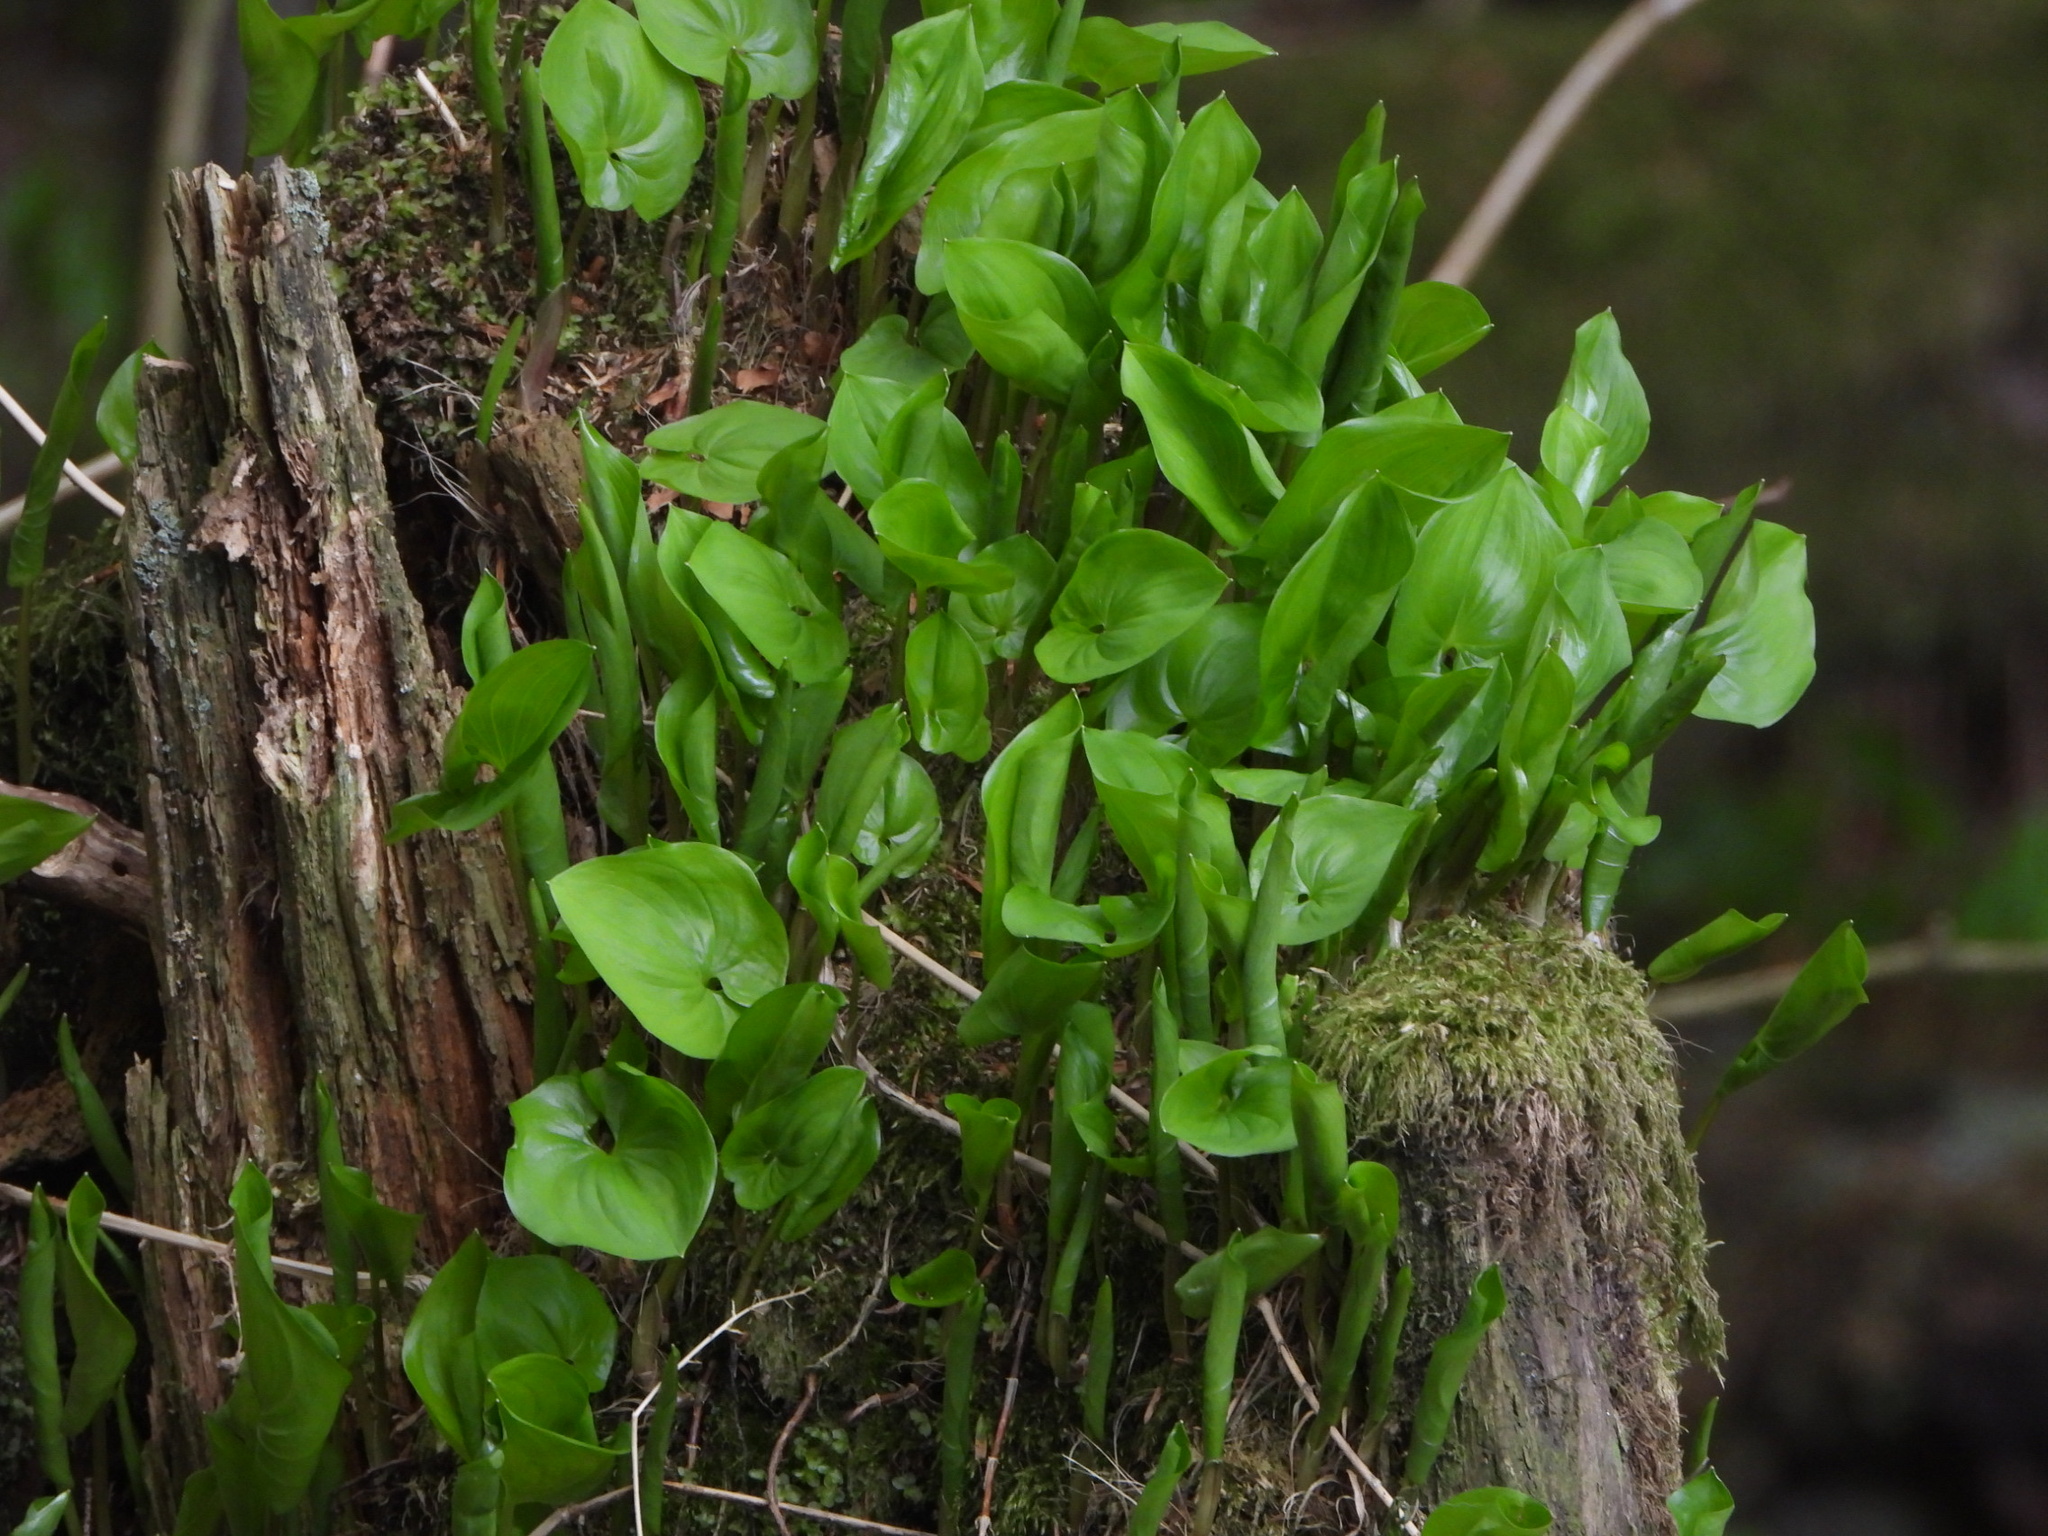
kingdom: Plantae
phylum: Tracheophyta
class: Liliopsida
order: Asparagales
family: Asparagaceae
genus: Maianthemum
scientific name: Maianthemum dilatatum
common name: False lily-of-the-valley
